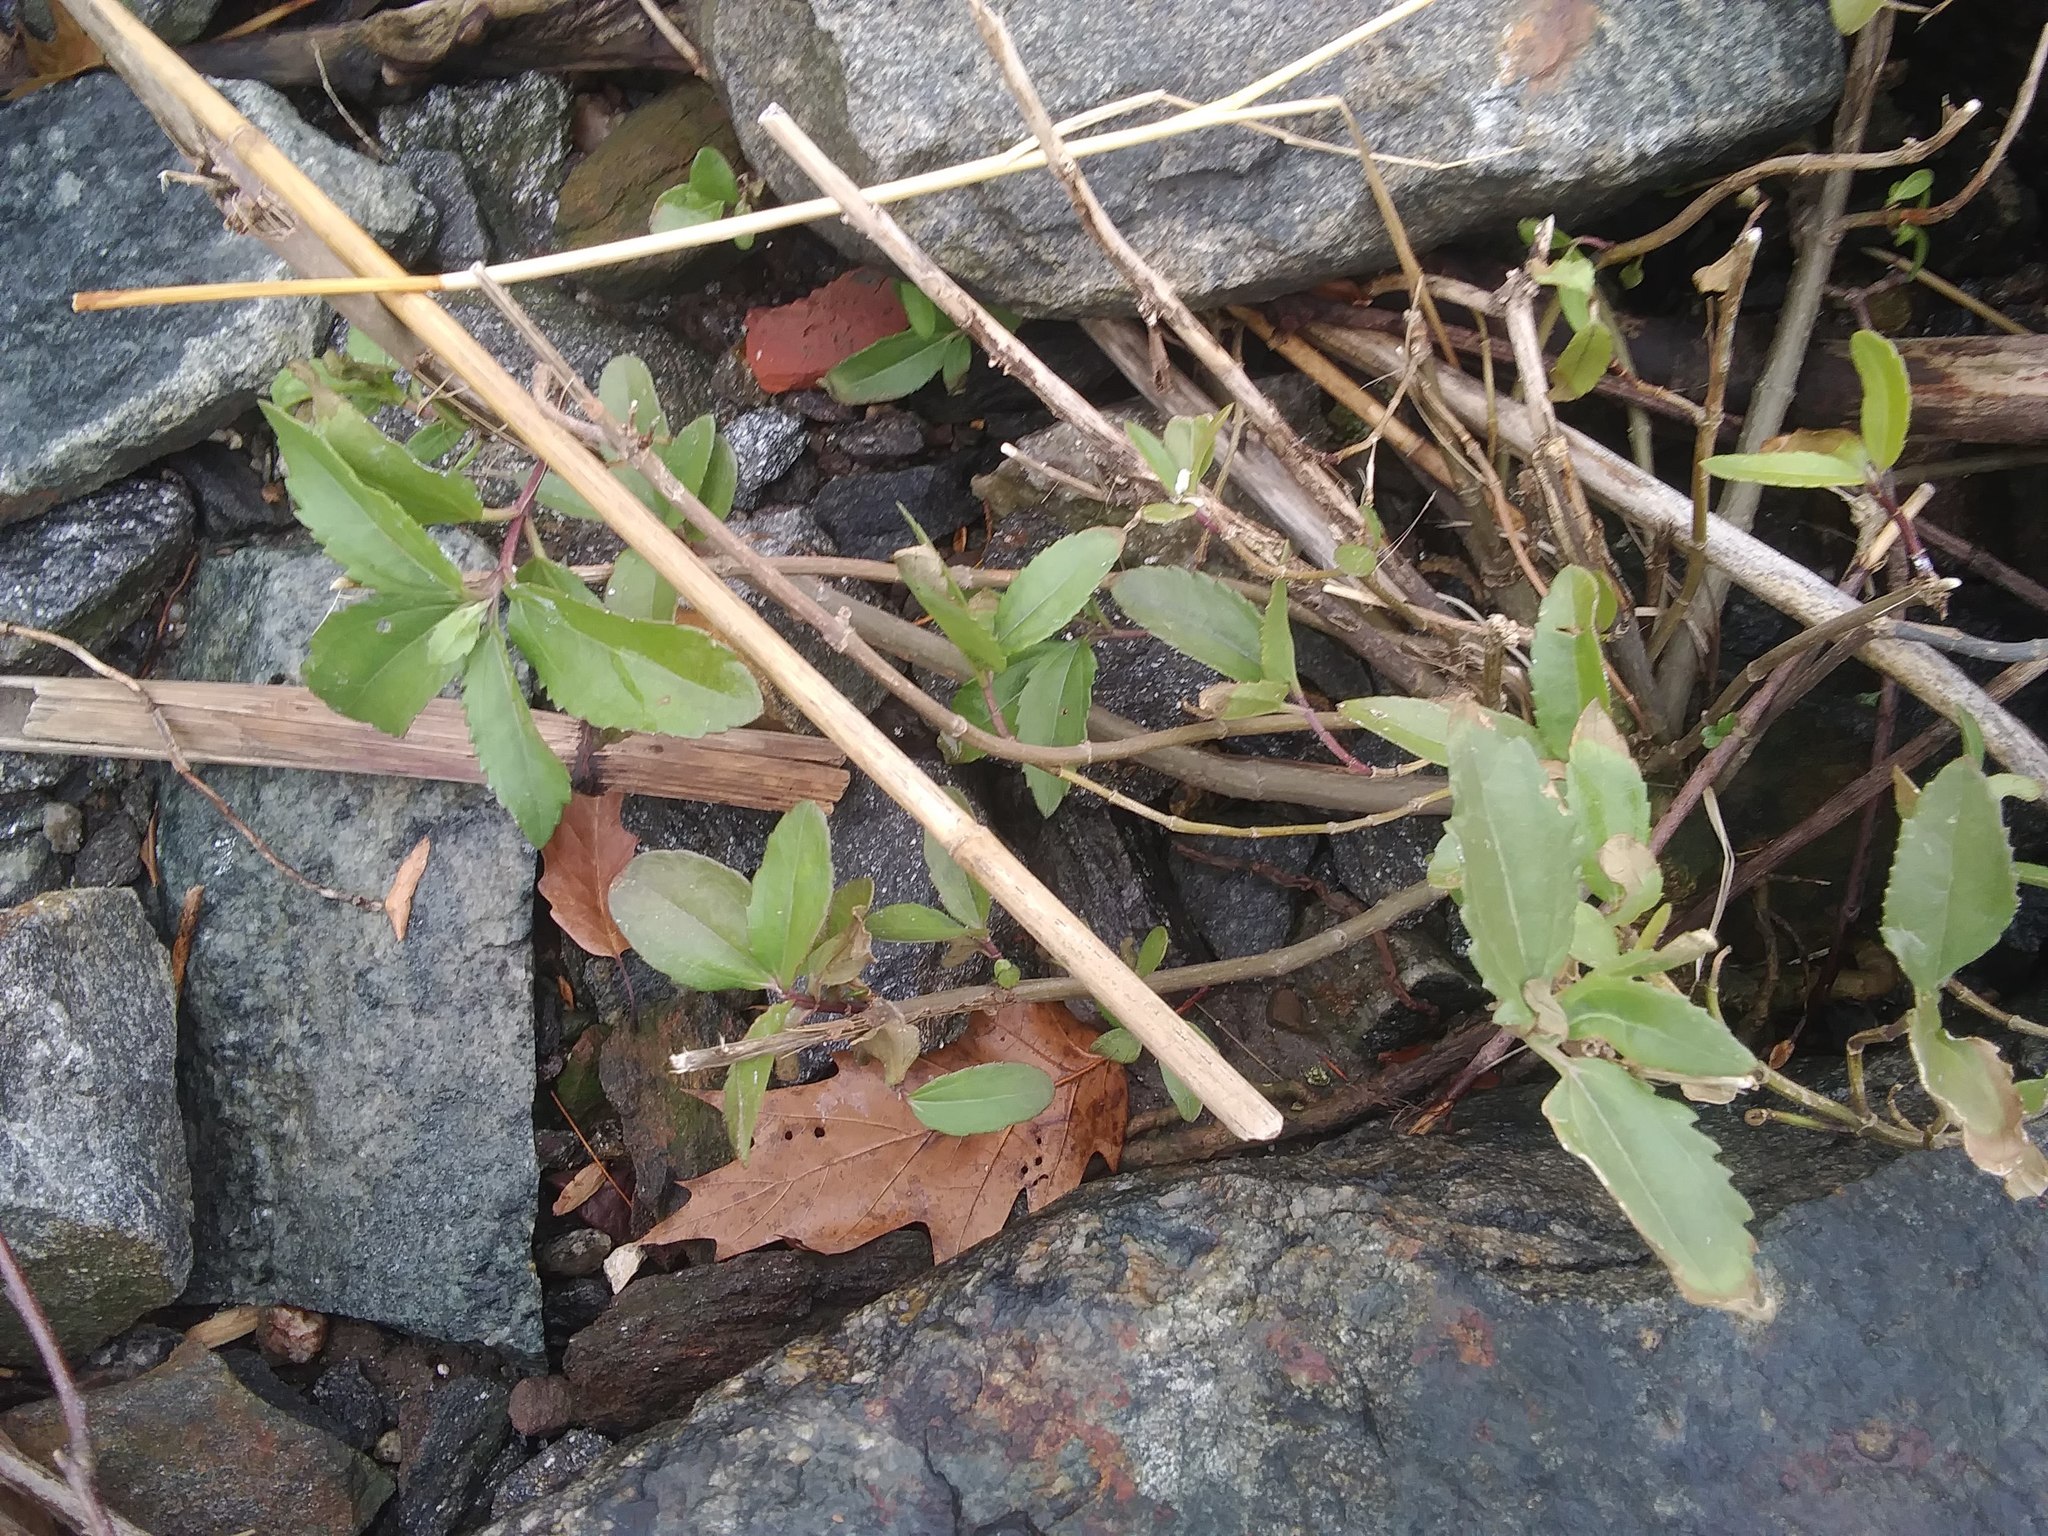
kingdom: Plantae
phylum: Tracheophyta
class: Magnoliopsida
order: Asterales
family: Asteraceae
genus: Iva
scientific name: Iva frutescens
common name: Big-leaved marsh-elder
